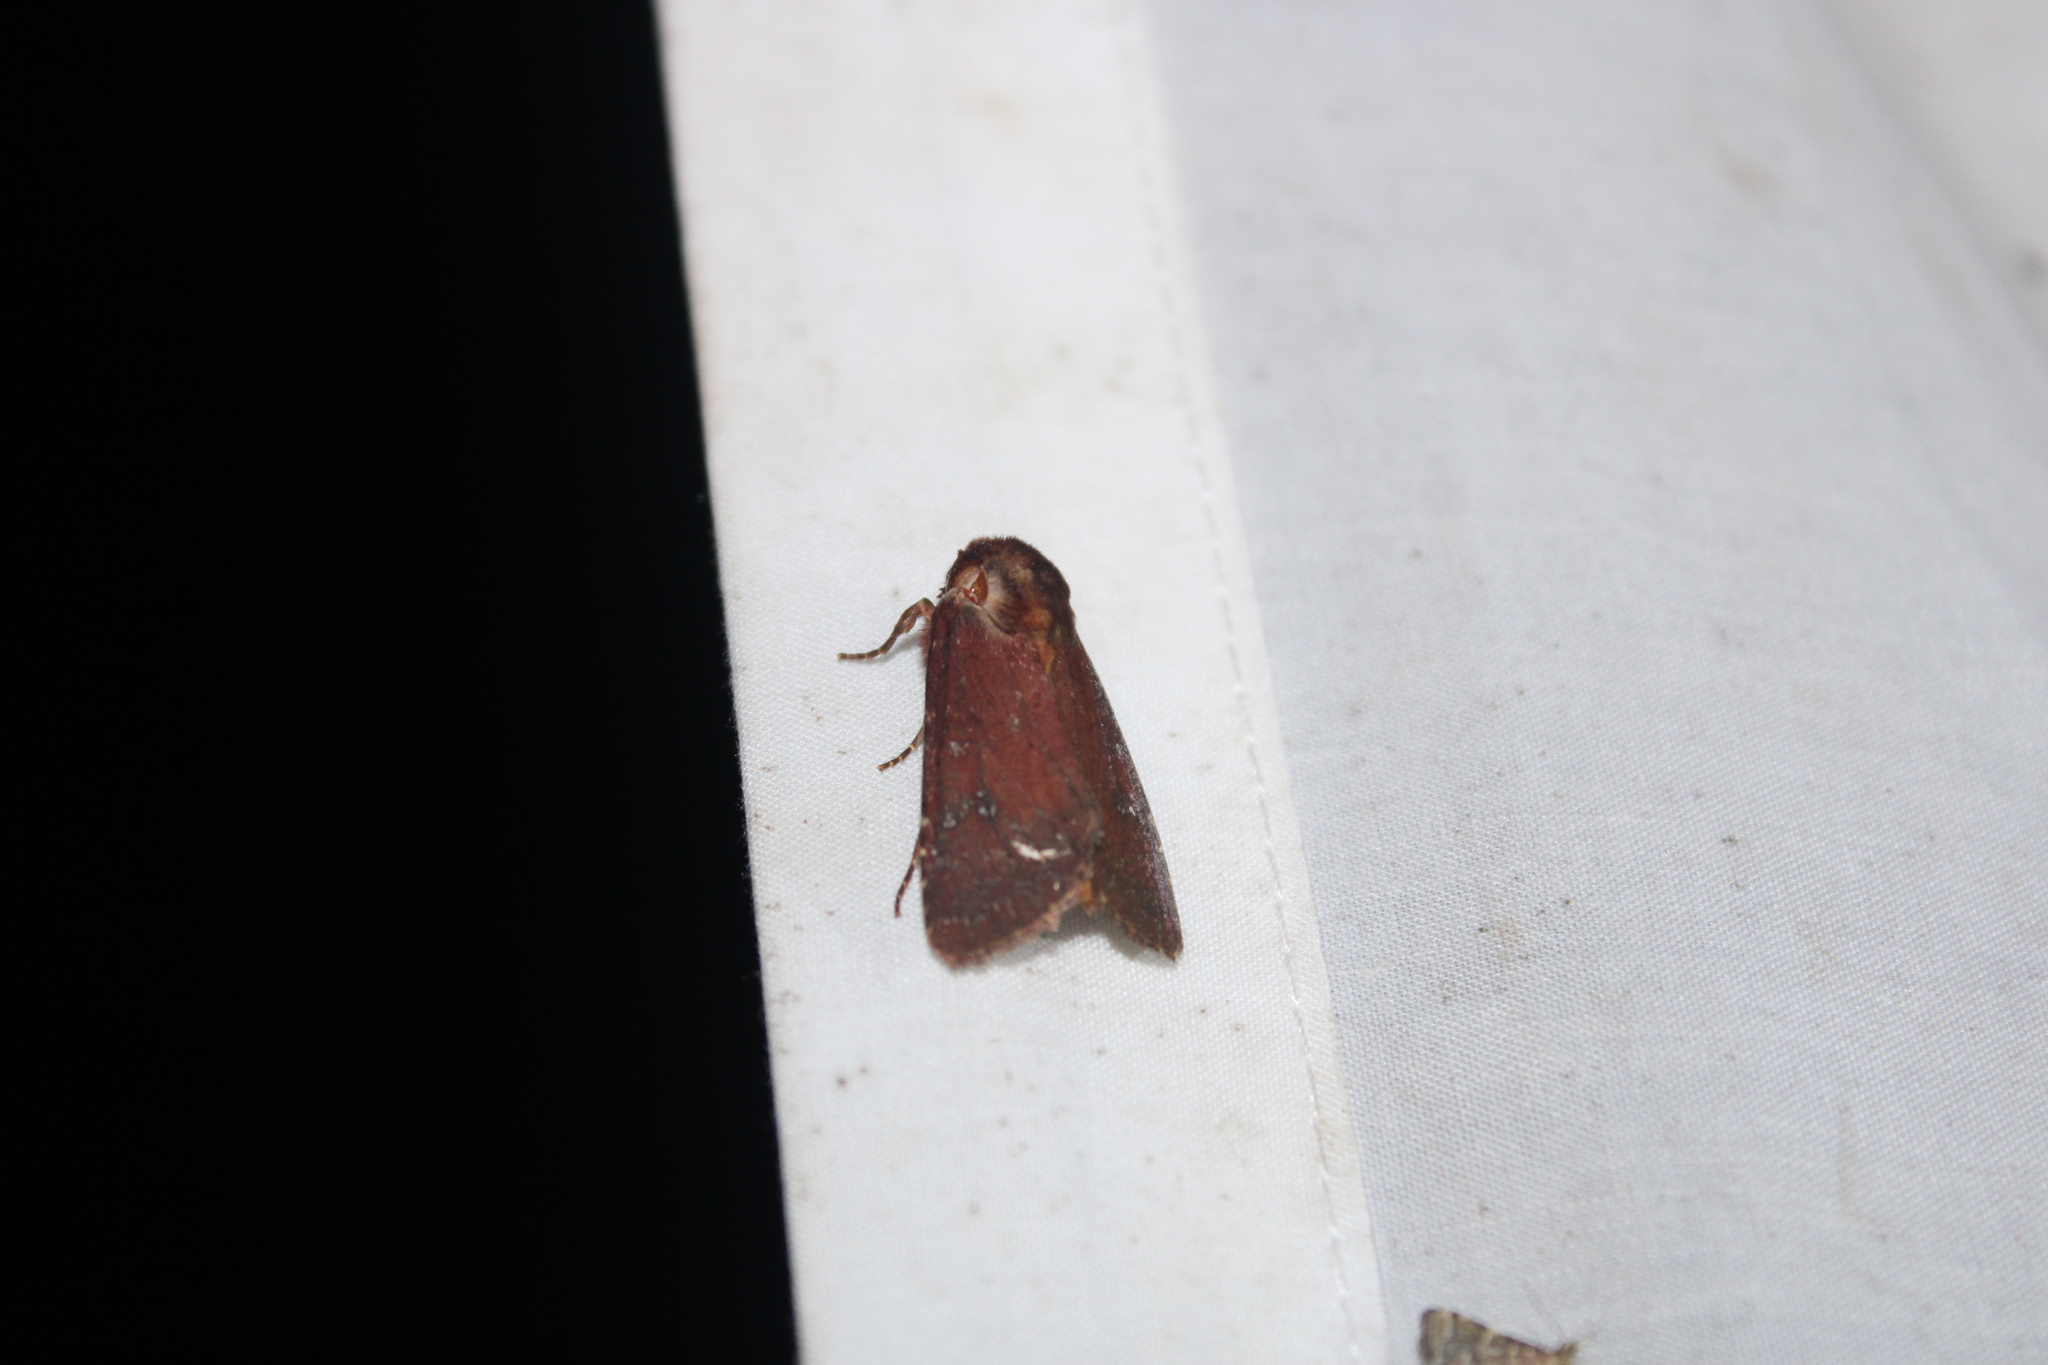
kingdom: Animalia
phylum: Arthropoda
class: Insecta
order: Lepidoptera
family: Noctuidae
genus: Sideridis
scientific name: Sideridis maryx
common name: Maroonwing moth
